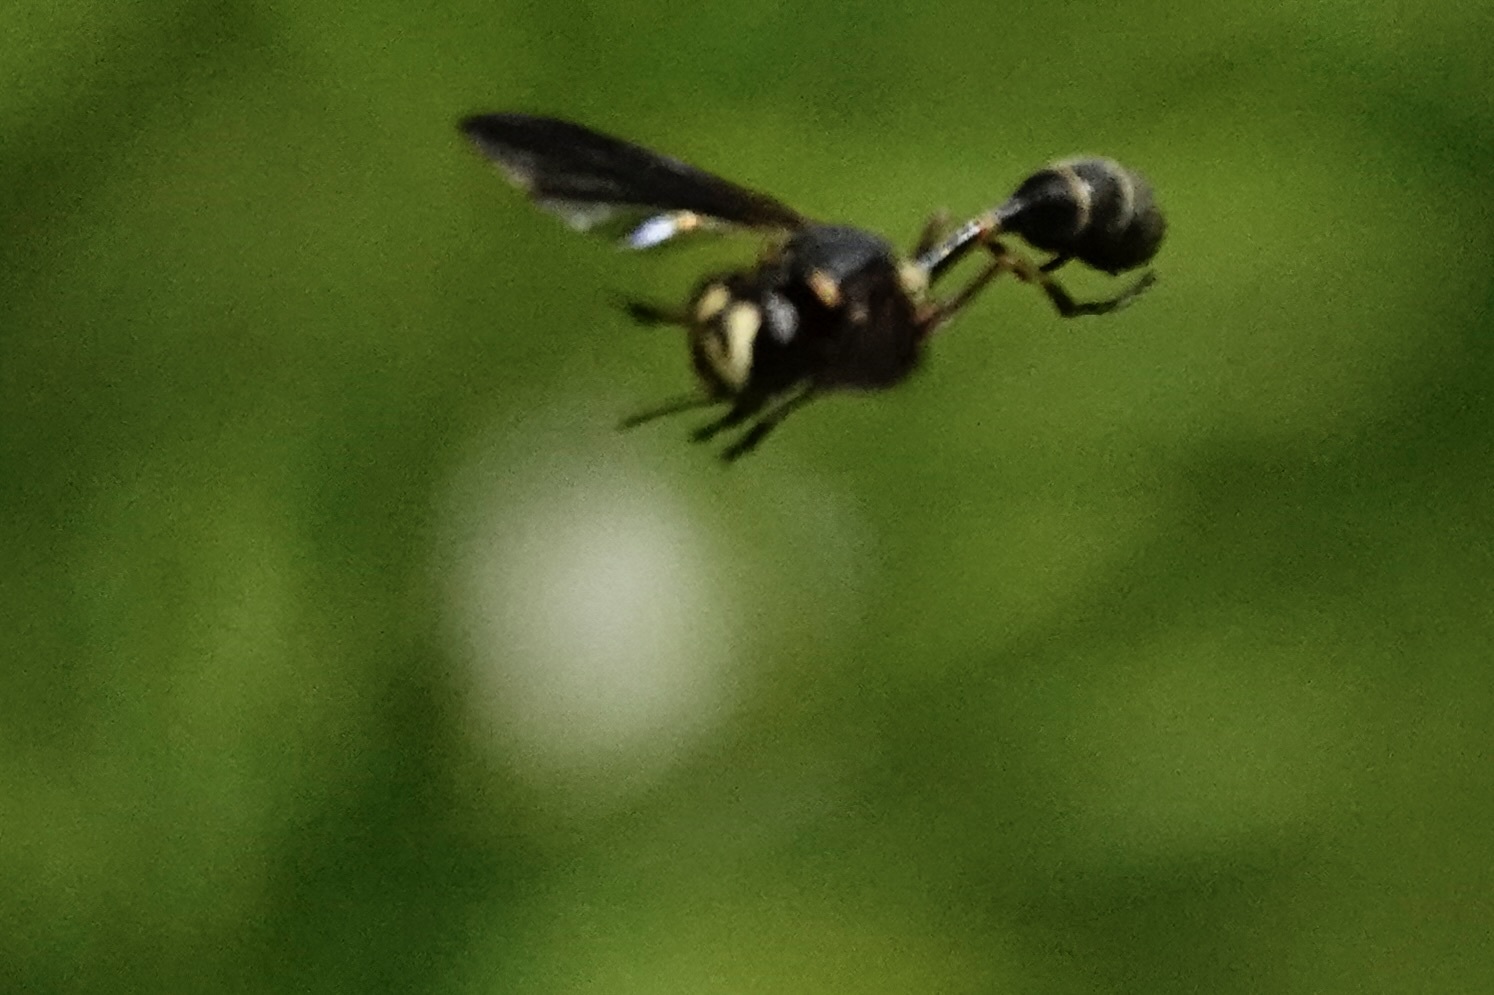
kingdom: Animalia
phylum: Arthropoda
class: Insecta
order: Diptera
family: Conopidae
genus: Physocephala
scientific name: Physocephala sagittaria
